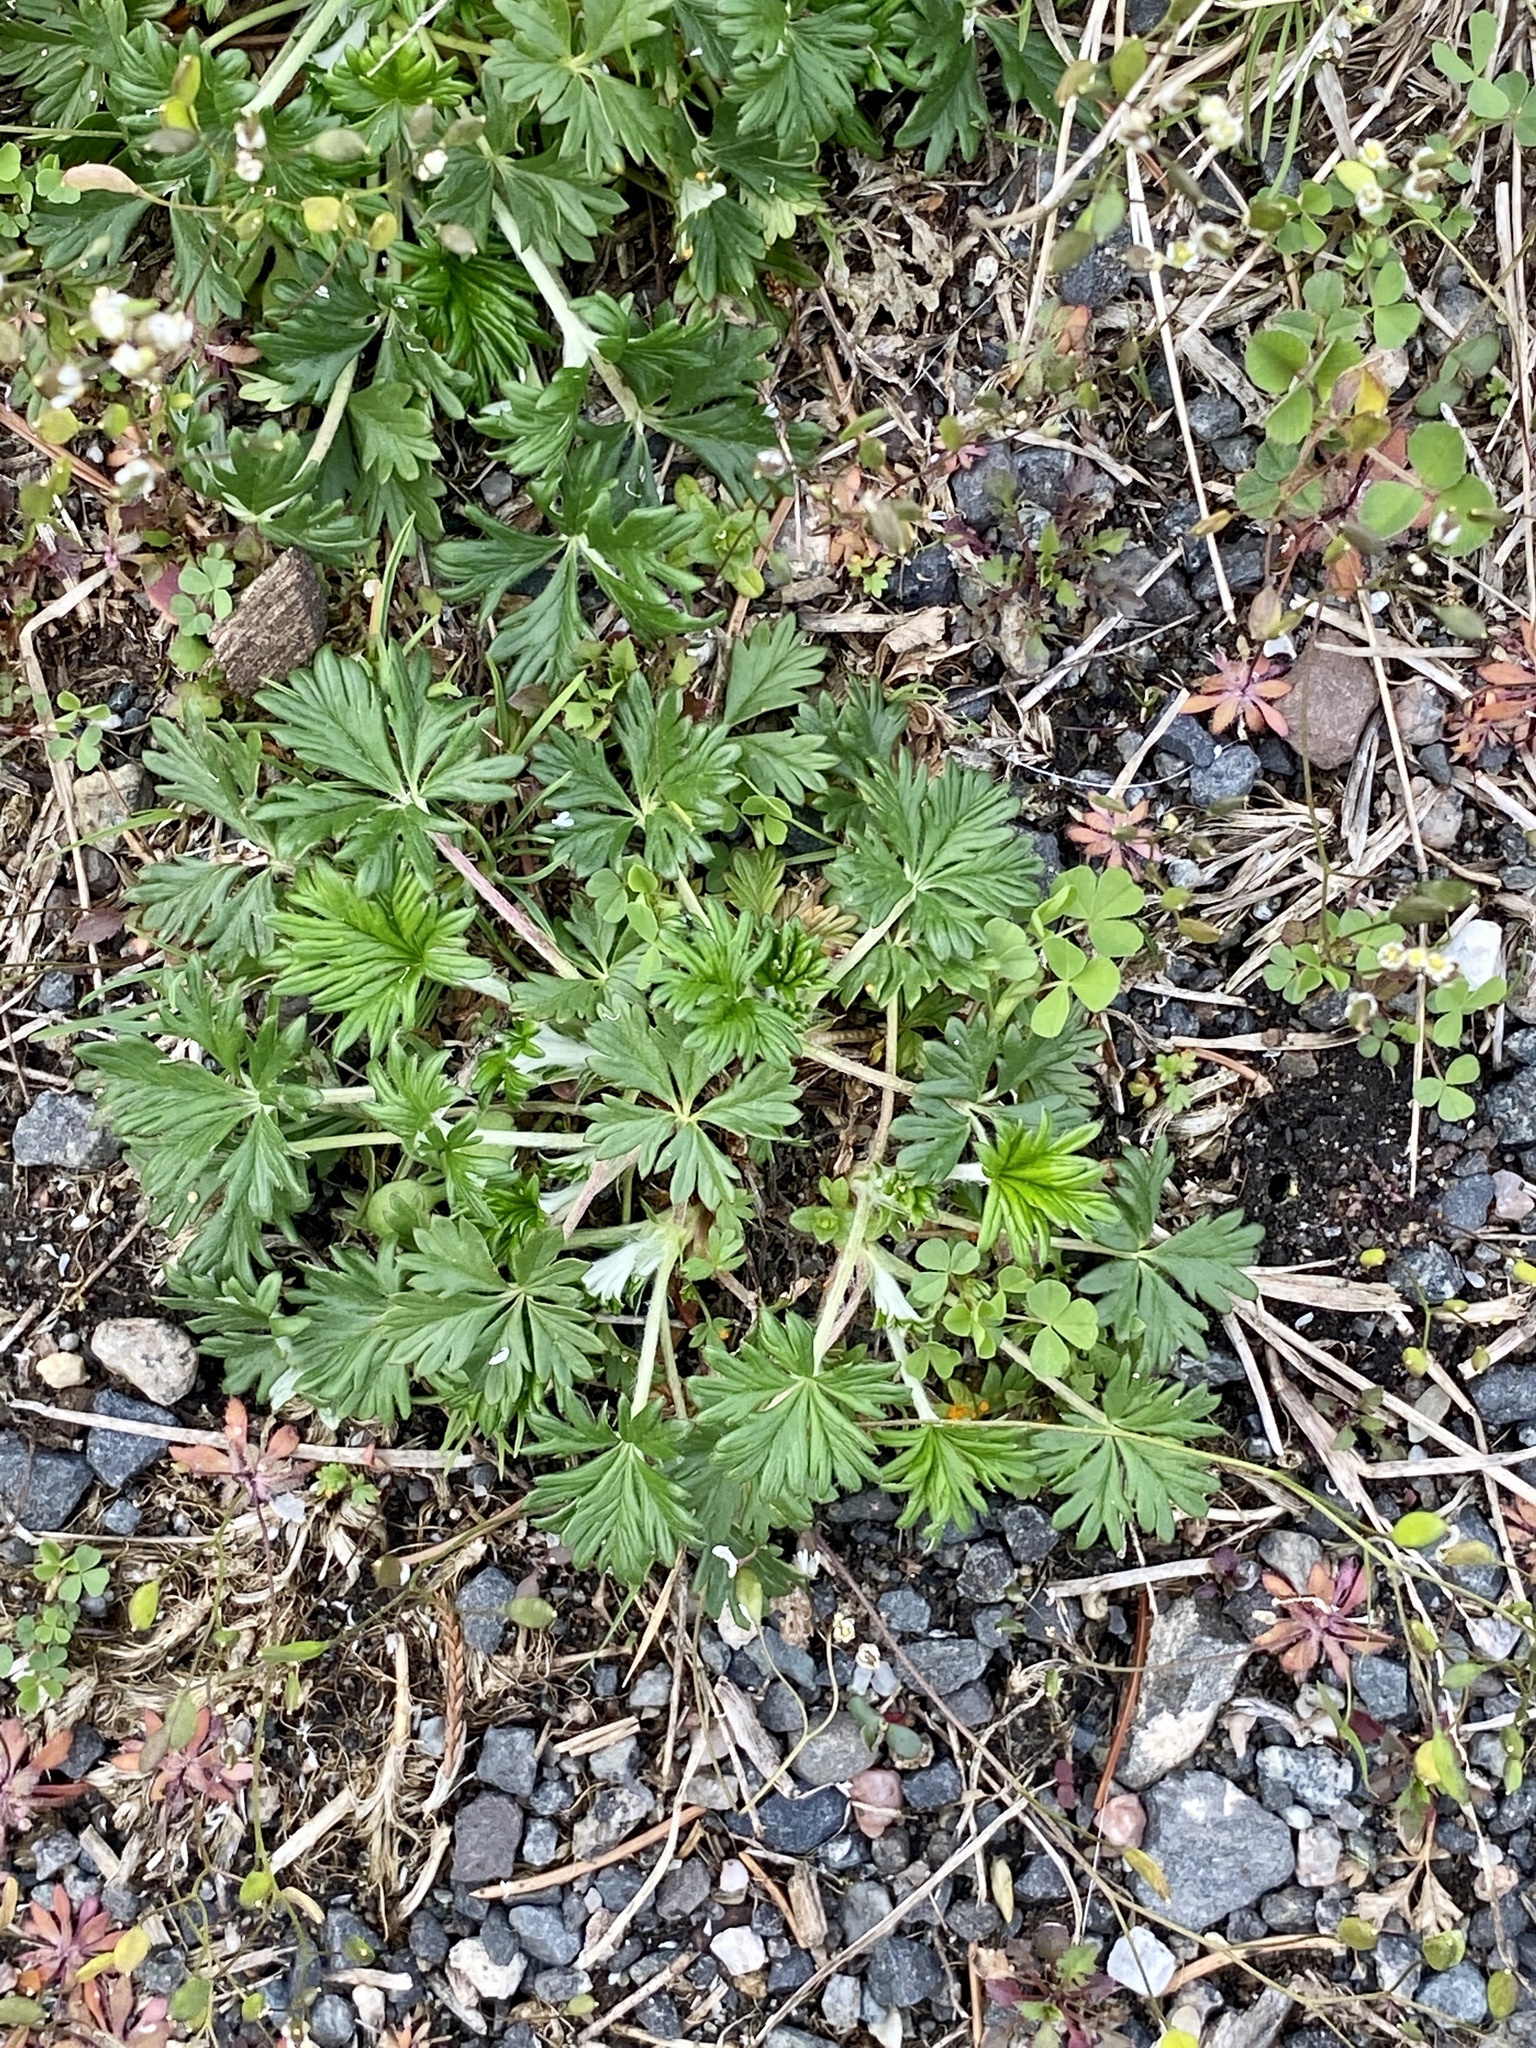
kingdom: Plantae
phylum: Tracheophyta
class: Magnoliopsida
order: Rosales
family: Rosaceae
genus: Potentilla
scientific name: Potentilla argentea
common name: Hoary cinquefoil
